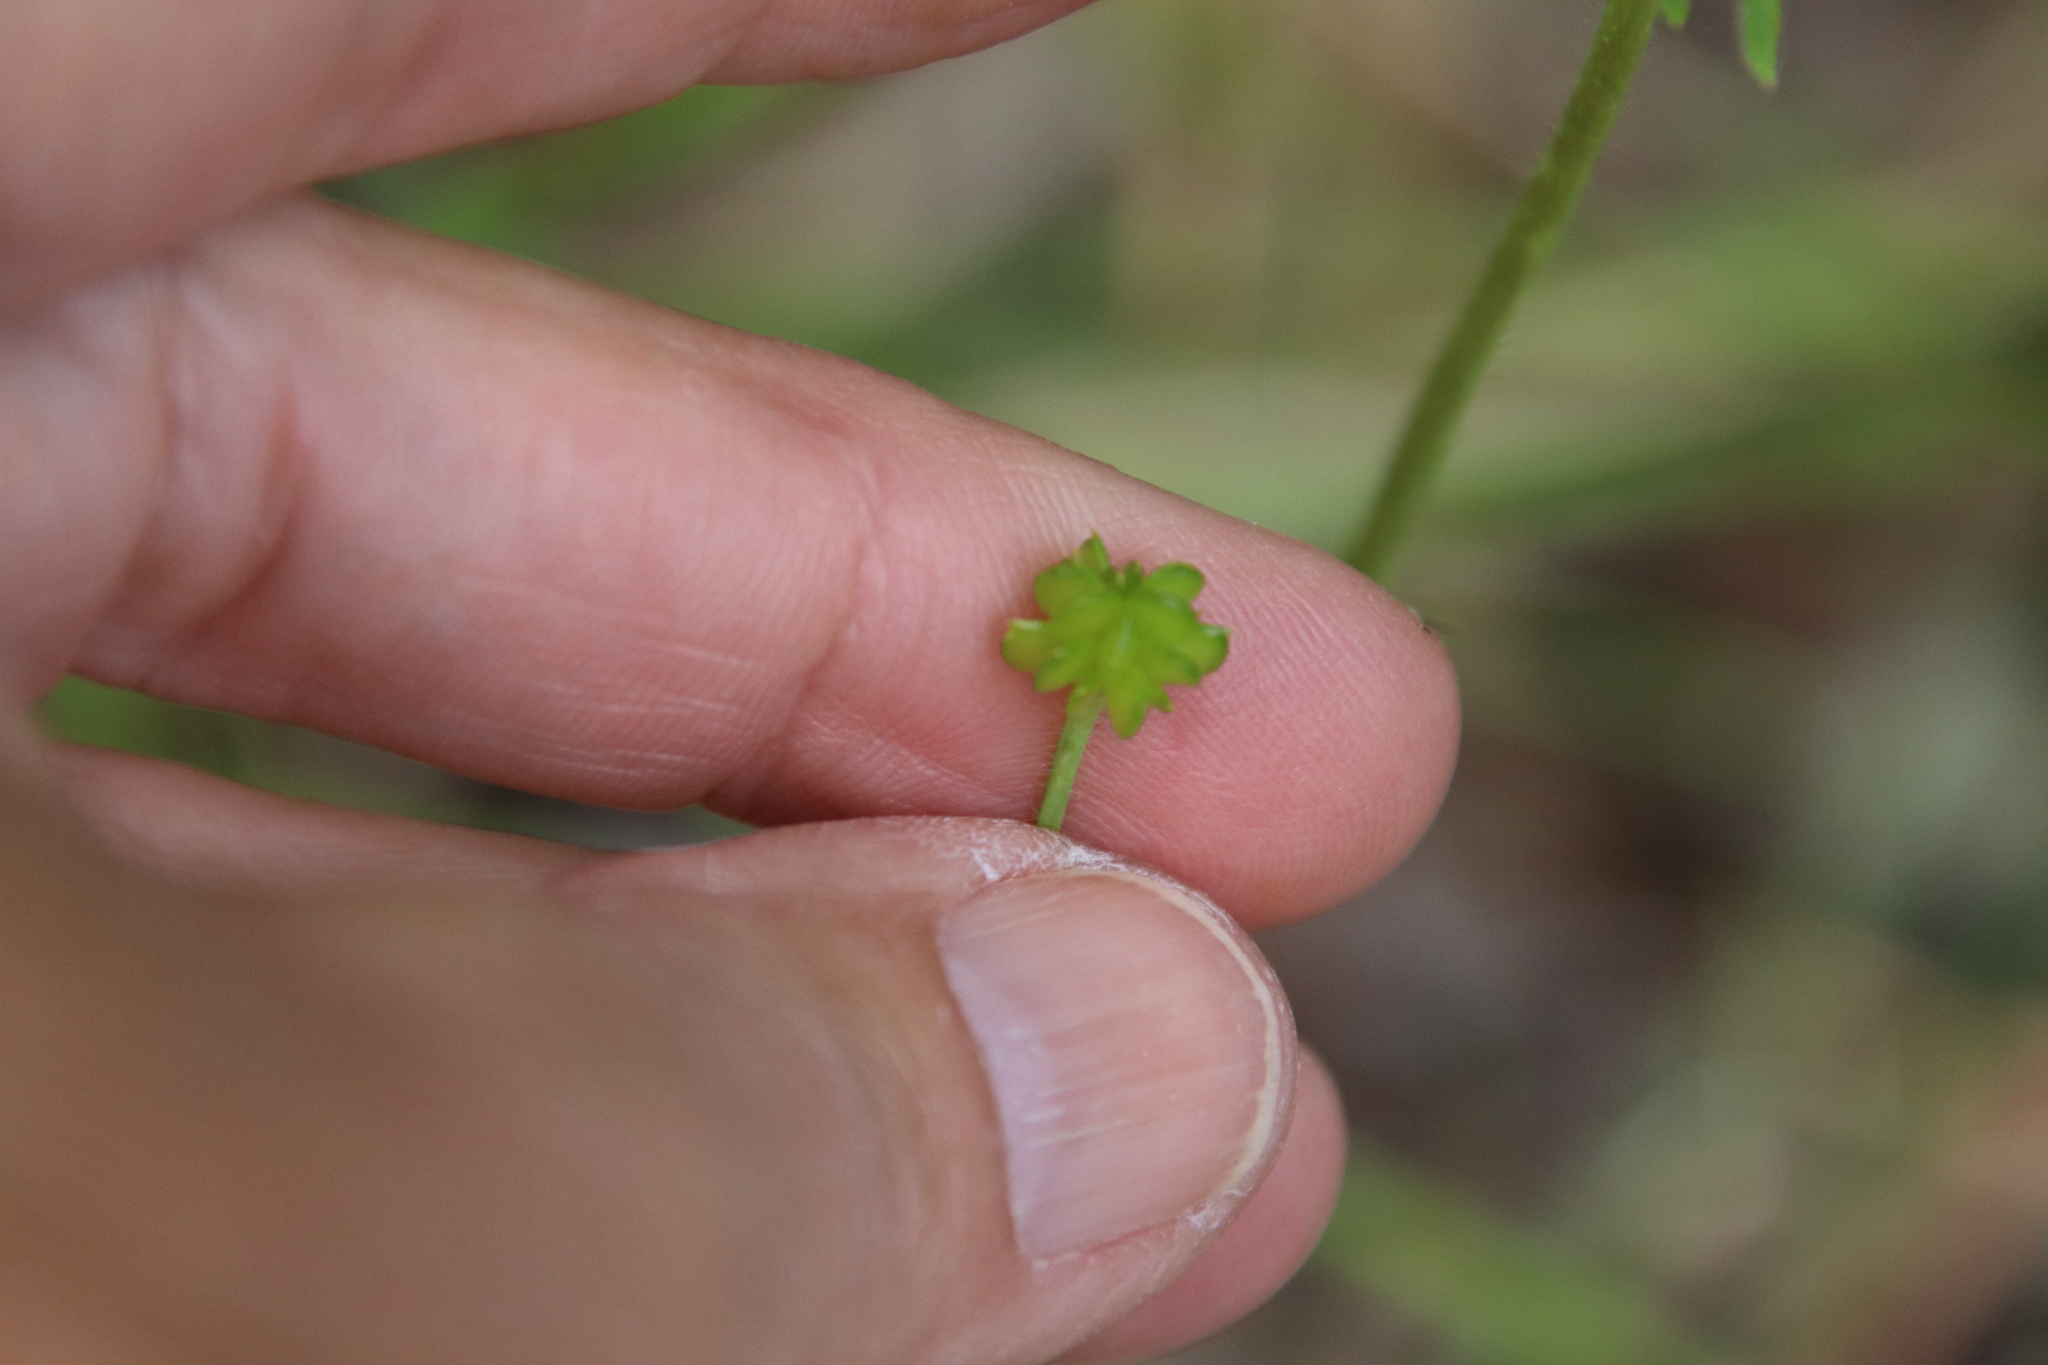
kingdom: Plantae
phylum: Tracheophyta
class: Magnoliopsida
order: Ranunculales
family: Ranunculaceae
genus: Ranunculus
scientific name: Ranunculus californicus
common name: California buttercup
